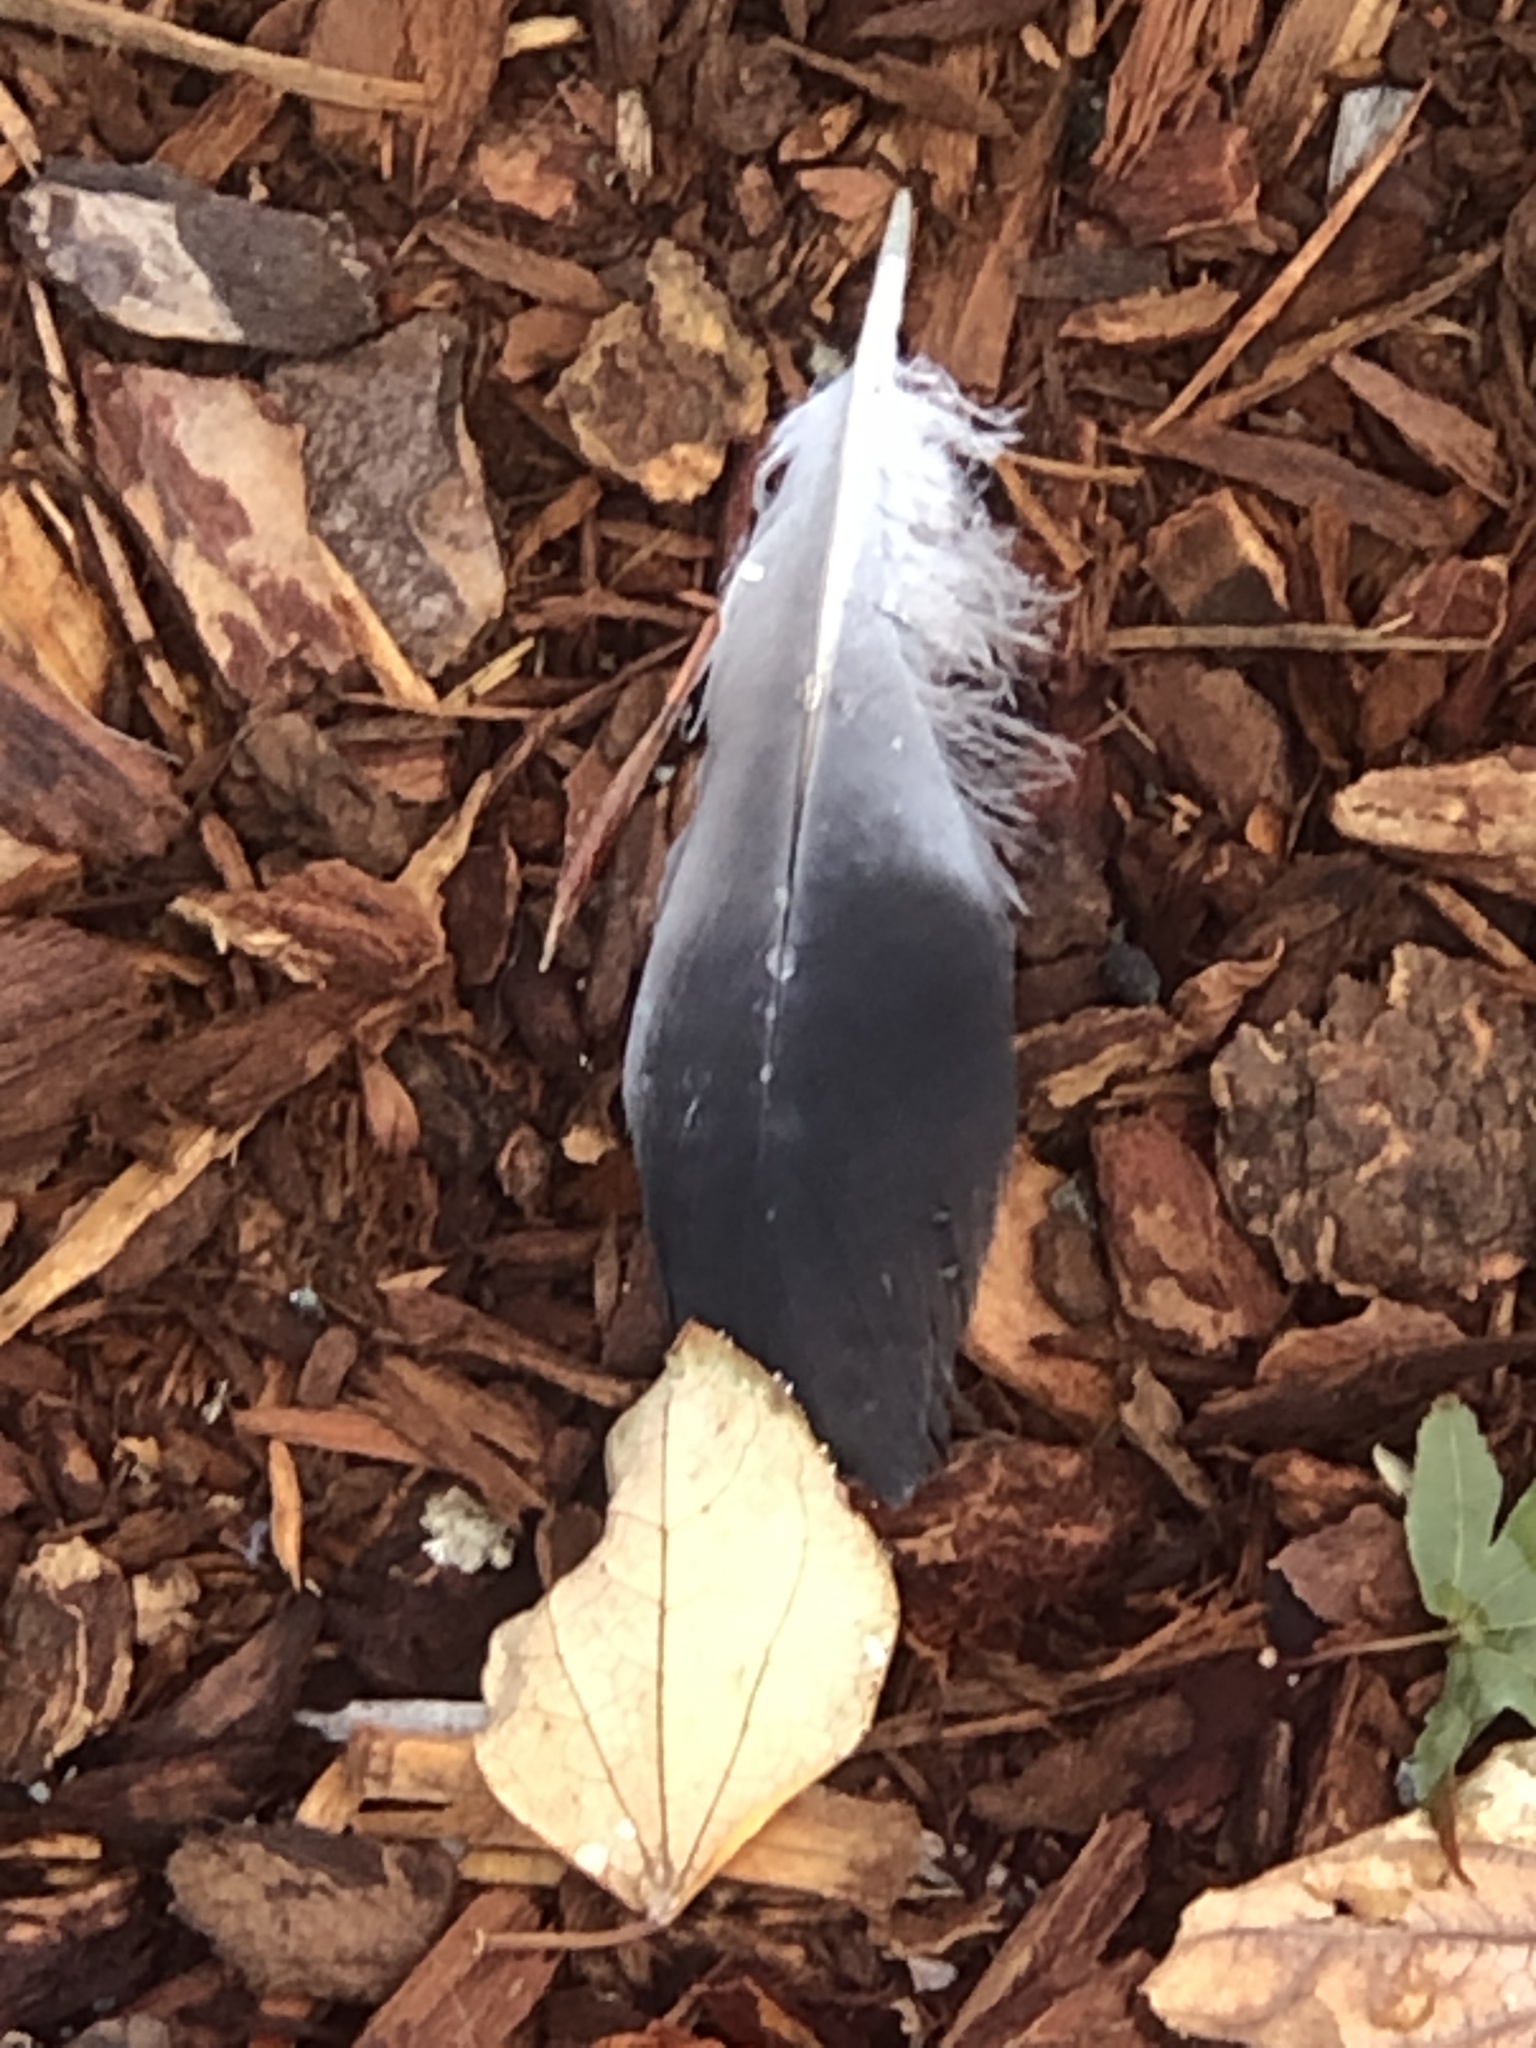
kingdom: Animalia
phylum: Chordata
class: Aves
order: Columbiformes
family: Columbidae
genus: Columba
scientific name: Columba livia
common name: Rock pigeon
